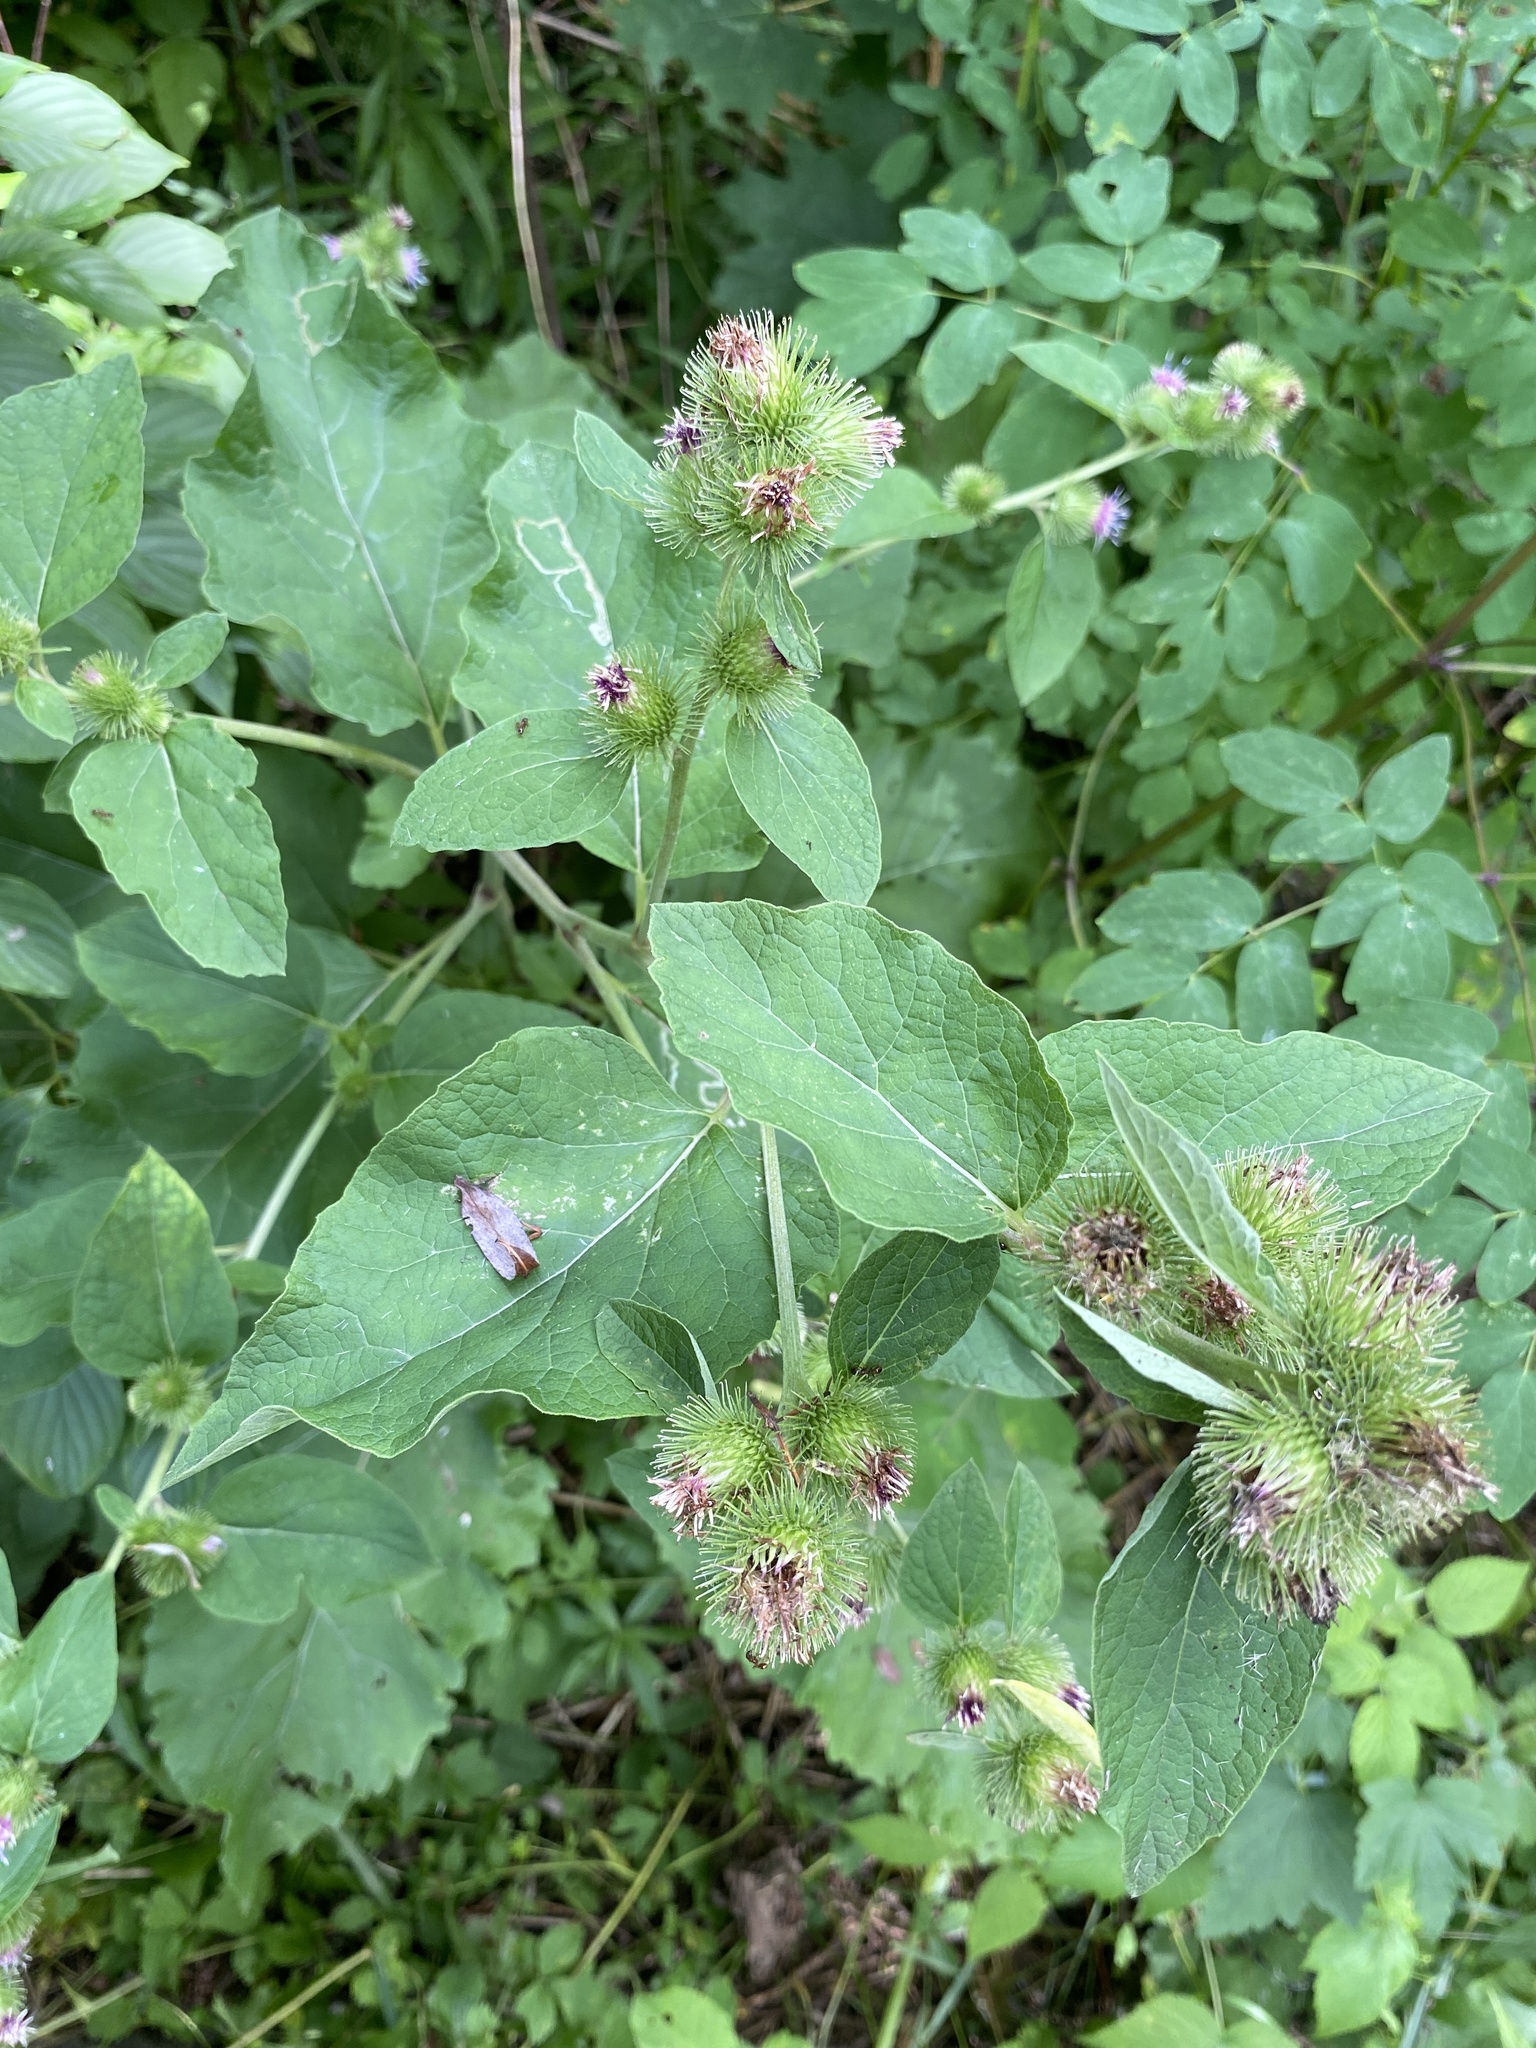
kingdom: Plantae
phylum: Tracheophyta
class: Magnoliopsida
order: Asterales
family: Asteraceae
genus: Arctium
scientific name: Arctium minus
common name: Lesser burdock
